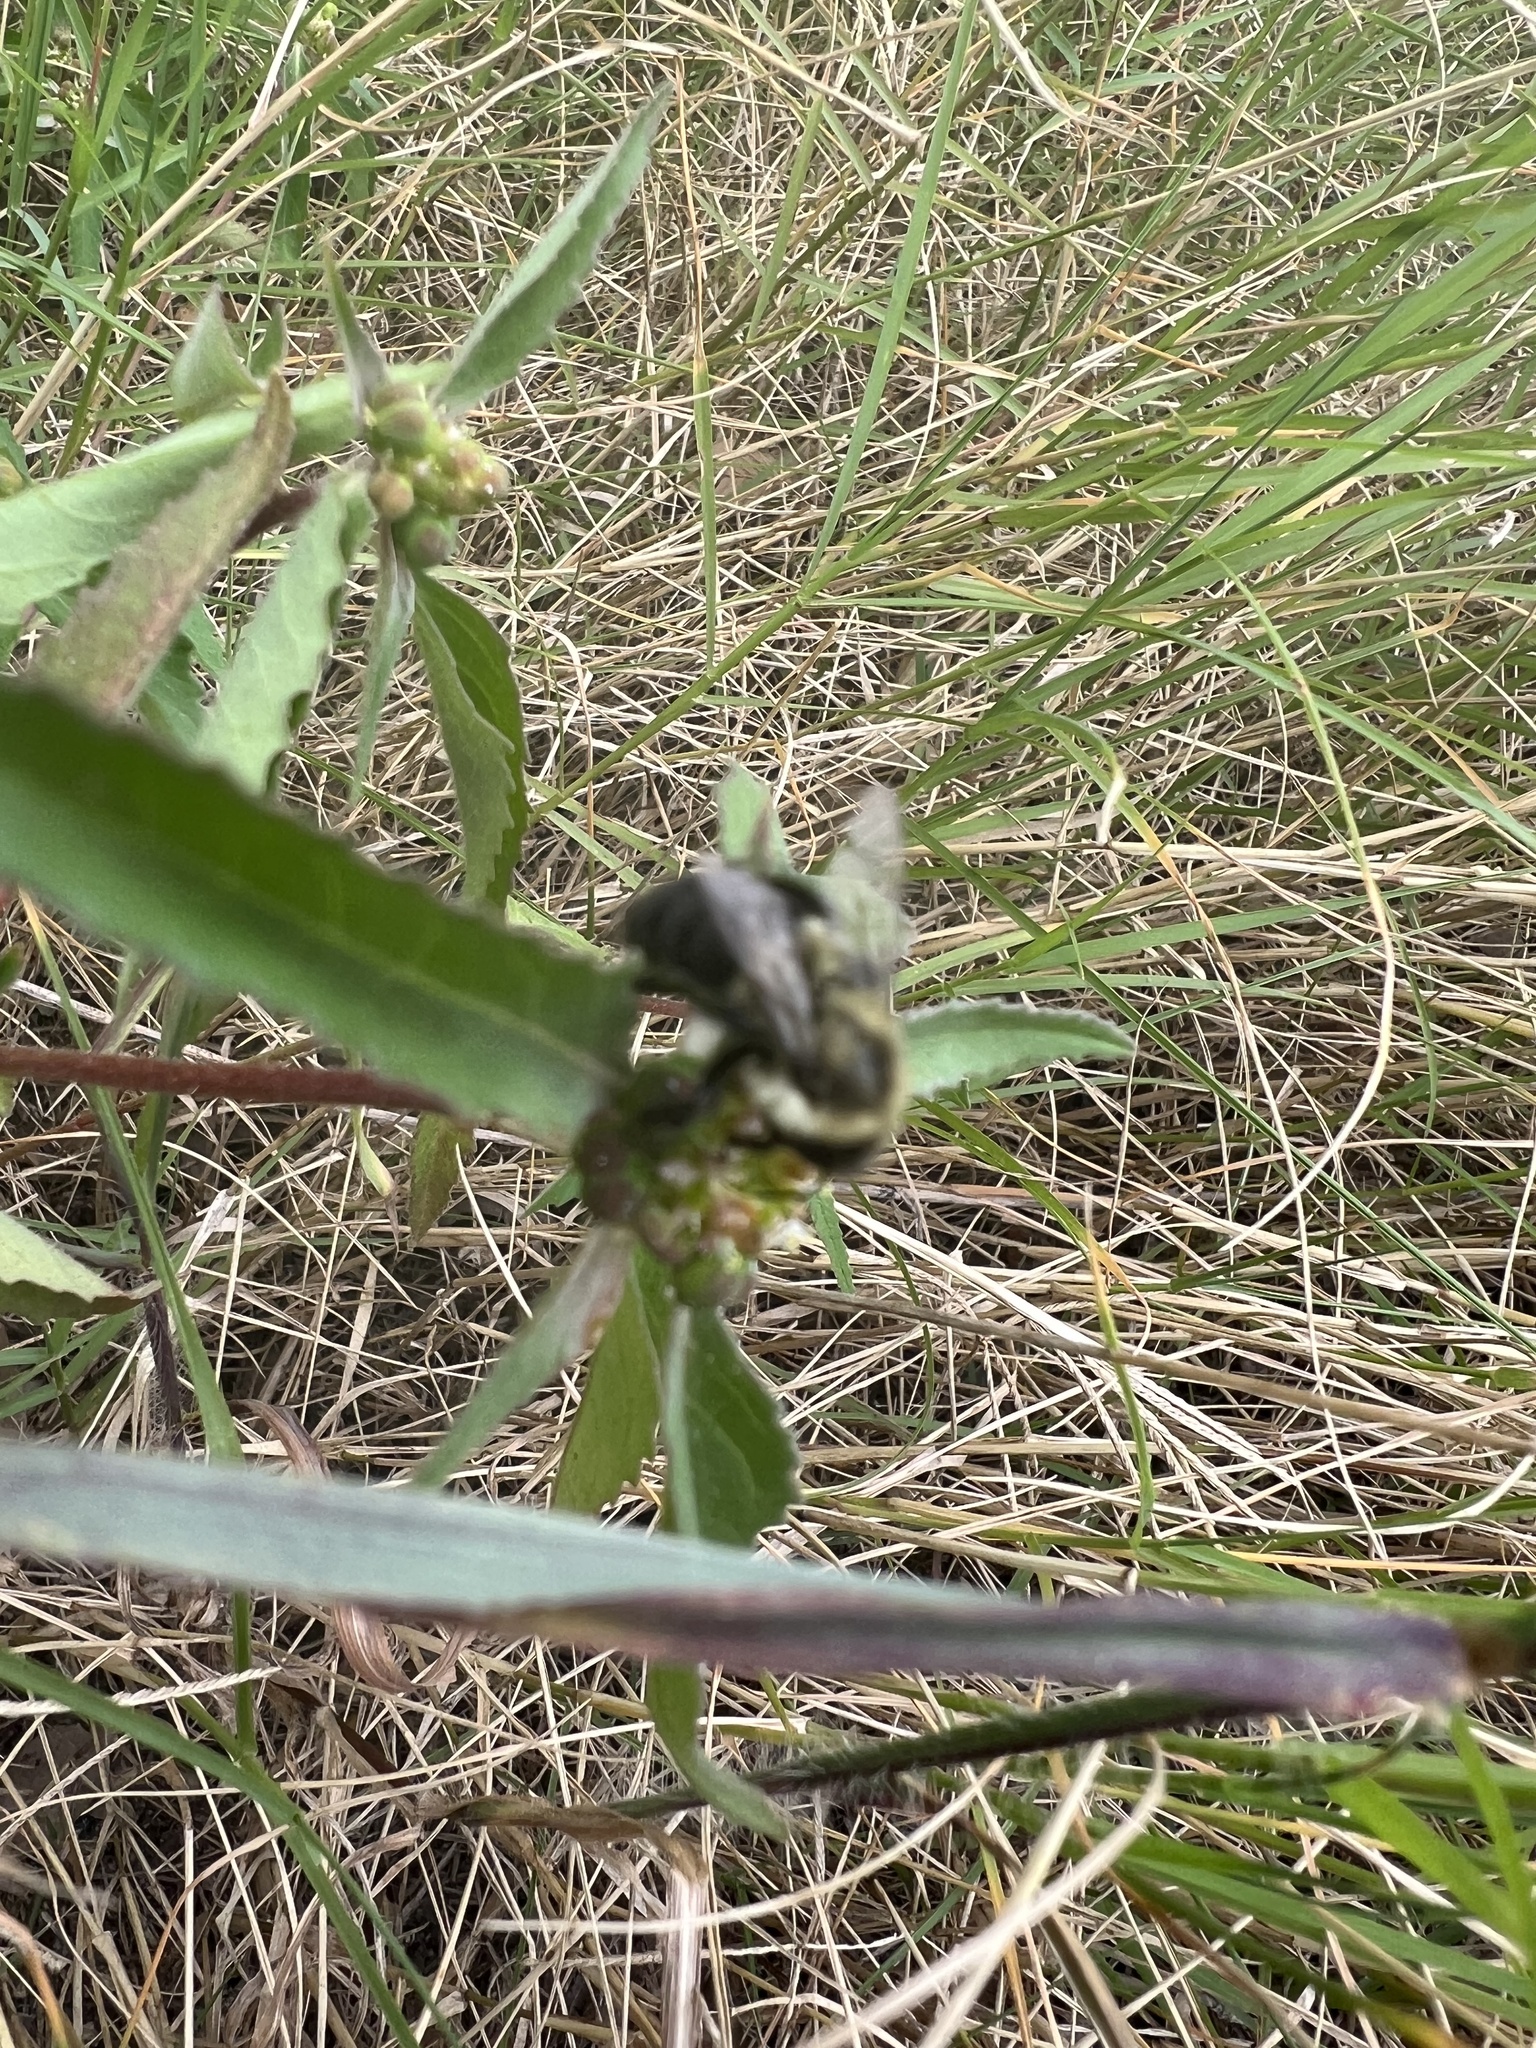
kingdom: Animalia
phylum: Arthropoda
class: Insecta
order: Hymenoptera
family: Apidae
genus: Bombus
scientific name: Bombus impatiens
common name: Common eastern bumble bee
